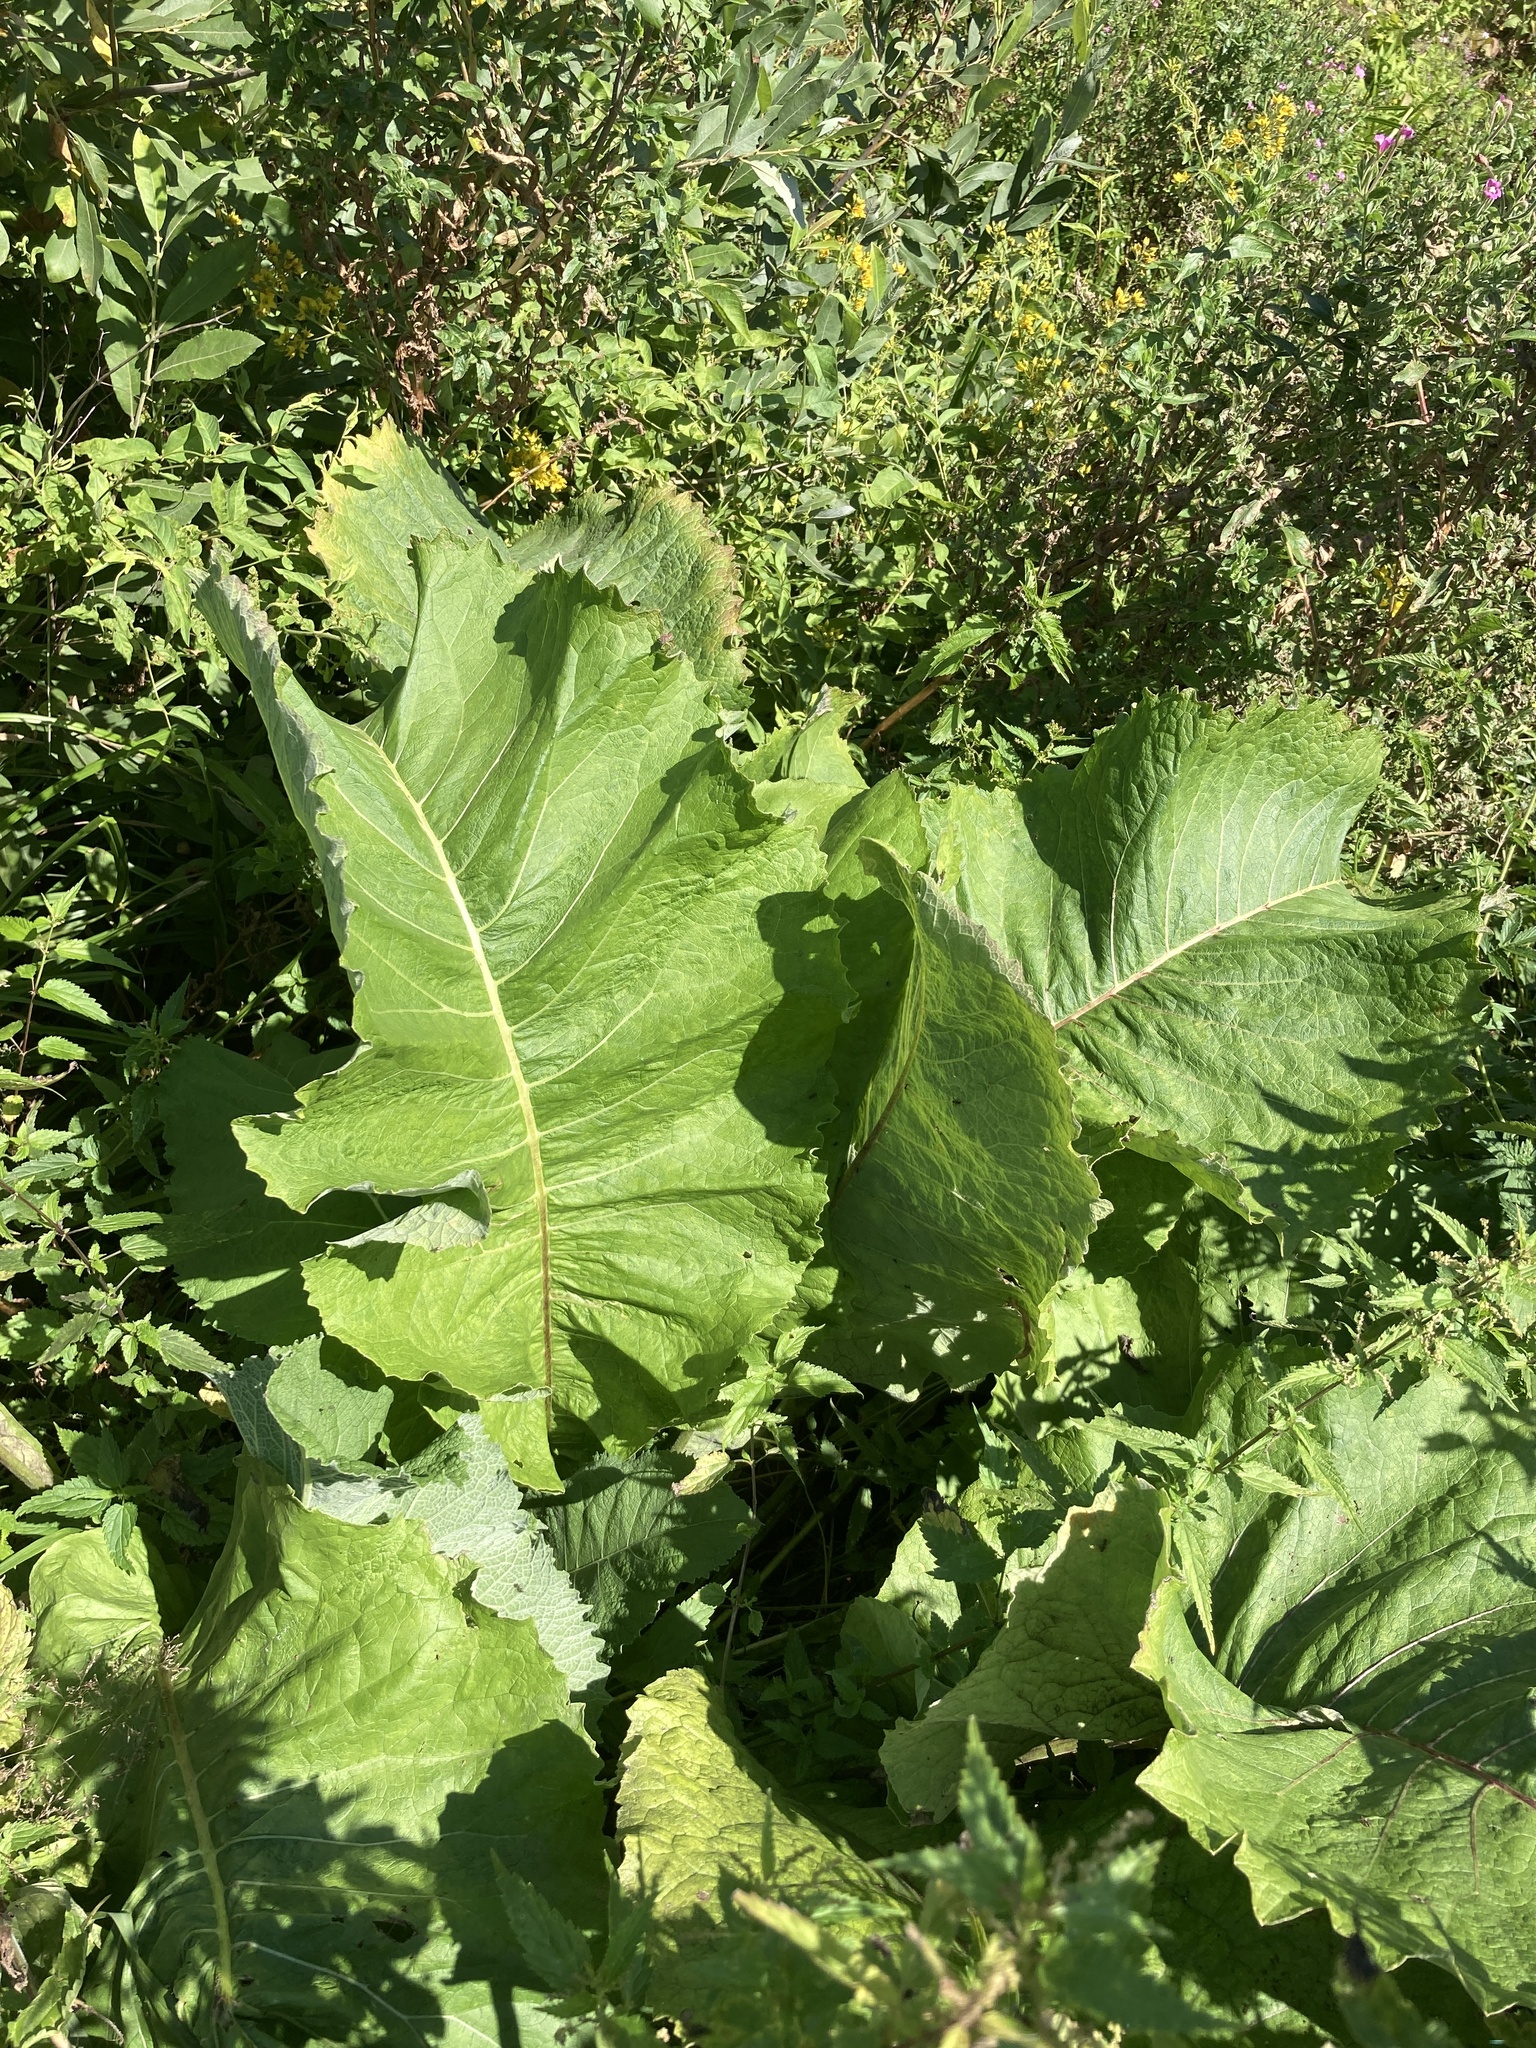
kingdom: Plantae
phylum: Tracheophyta
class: Magnoliopsida
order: Asterales
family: Asteraceae
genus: Inula
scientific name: Inula helenium
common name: Elecampane
